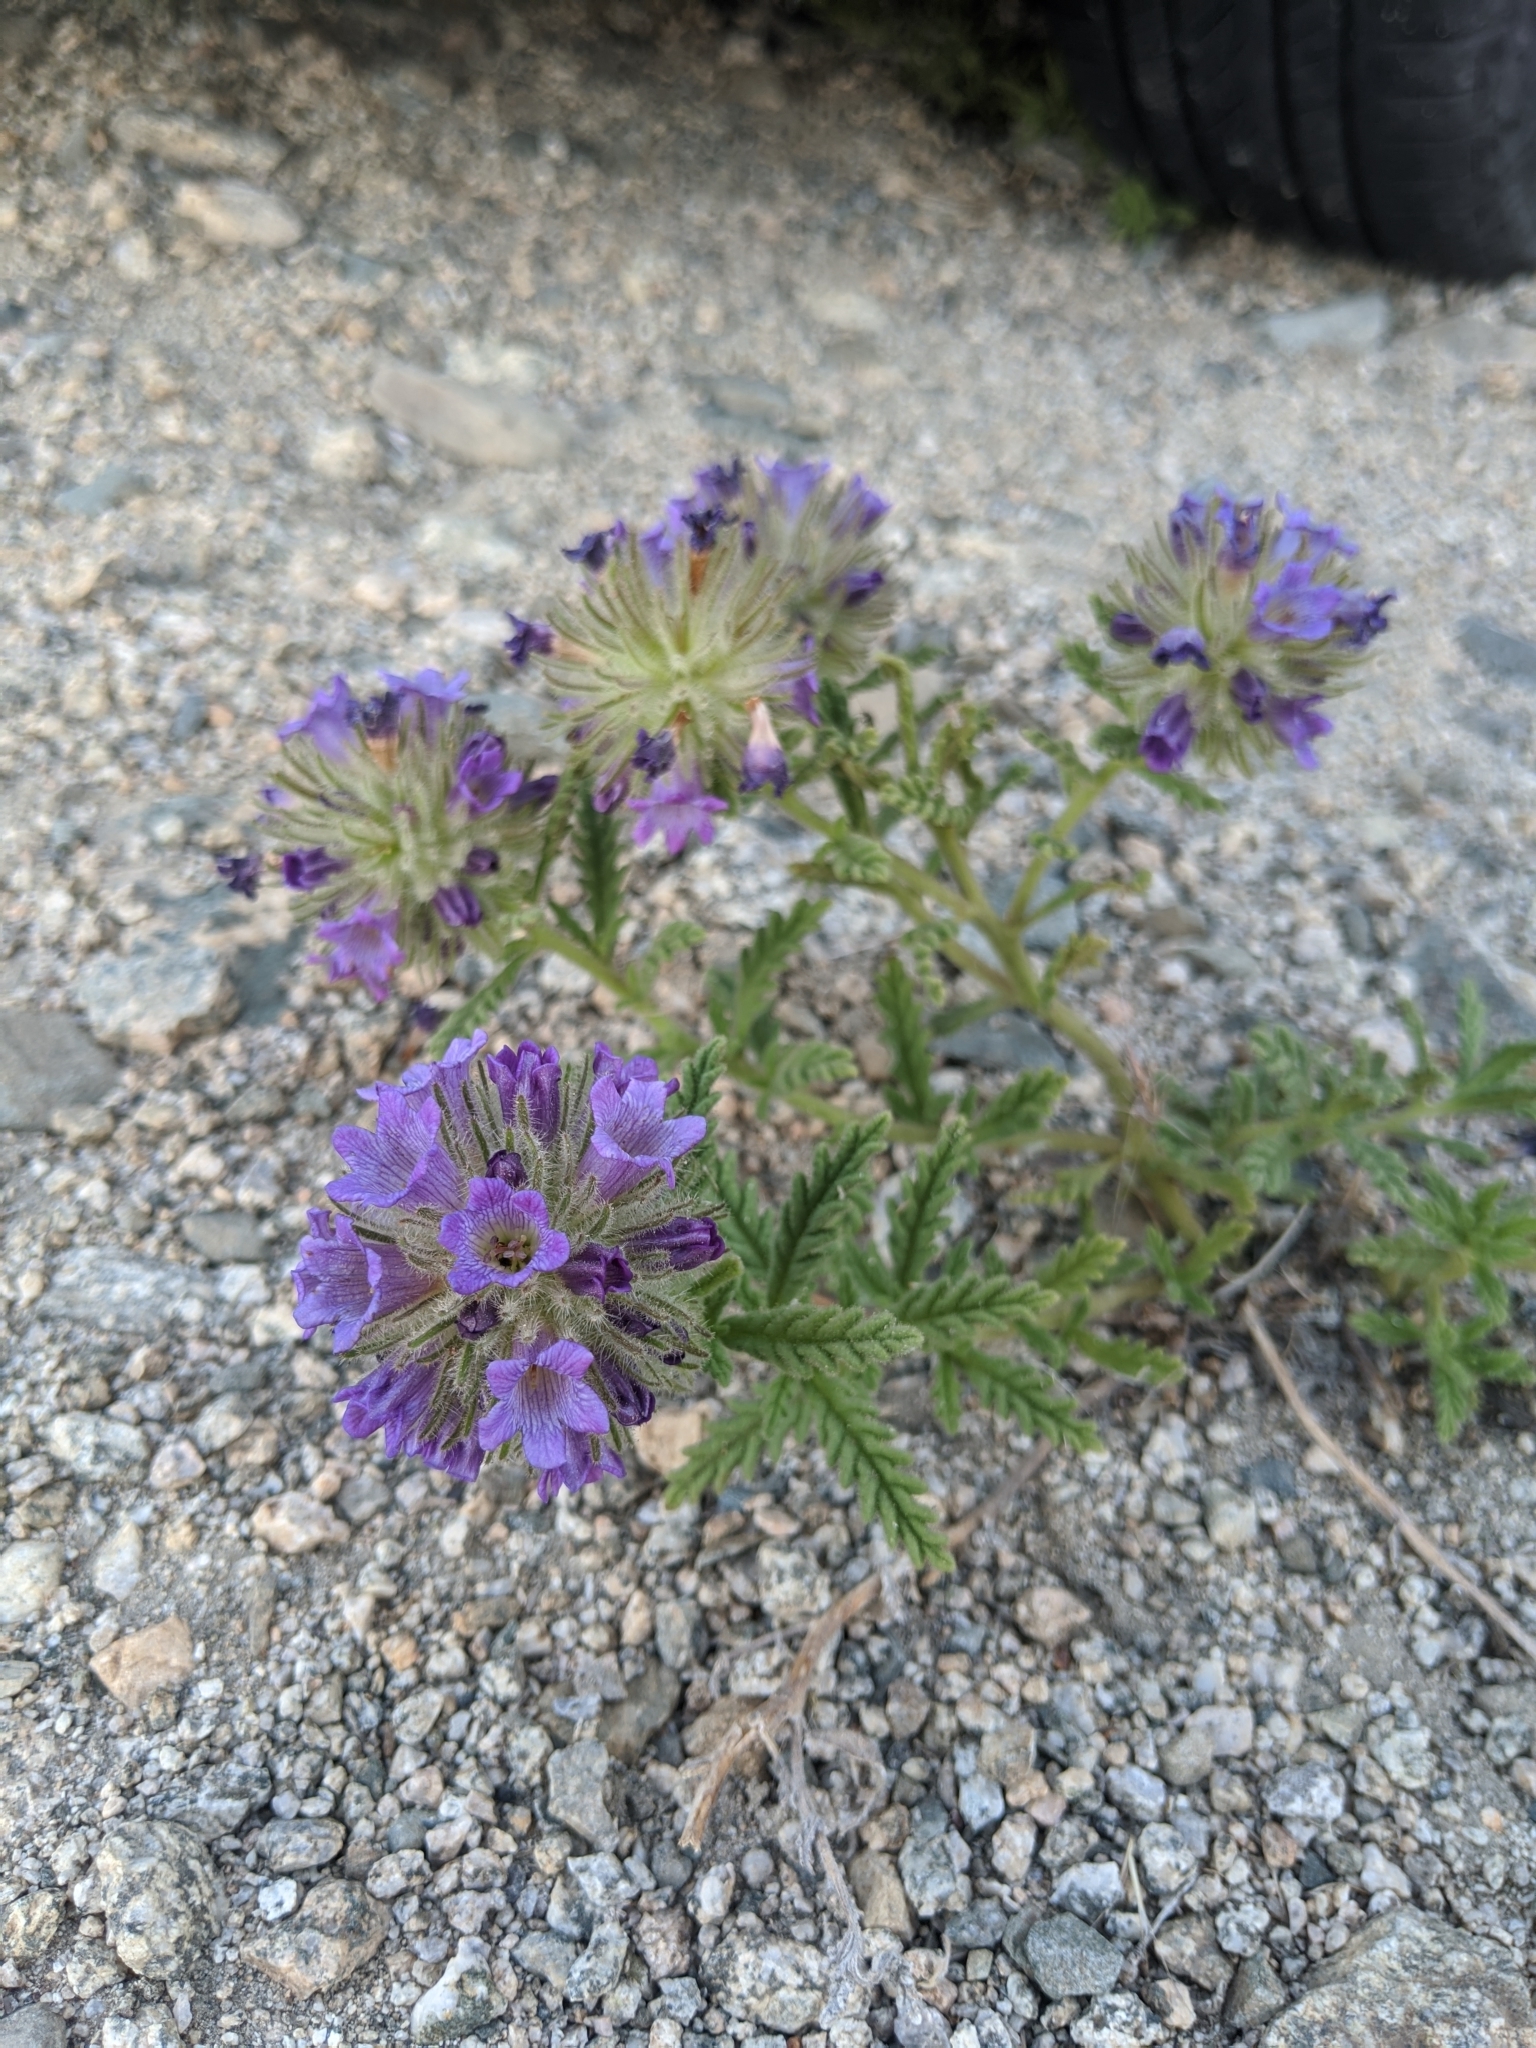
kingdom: Plantae
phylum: Tracheophyta
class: Magnoliopsida
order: Boraginales
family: Namaceae
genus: Nama
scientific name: Nama rothrockii
